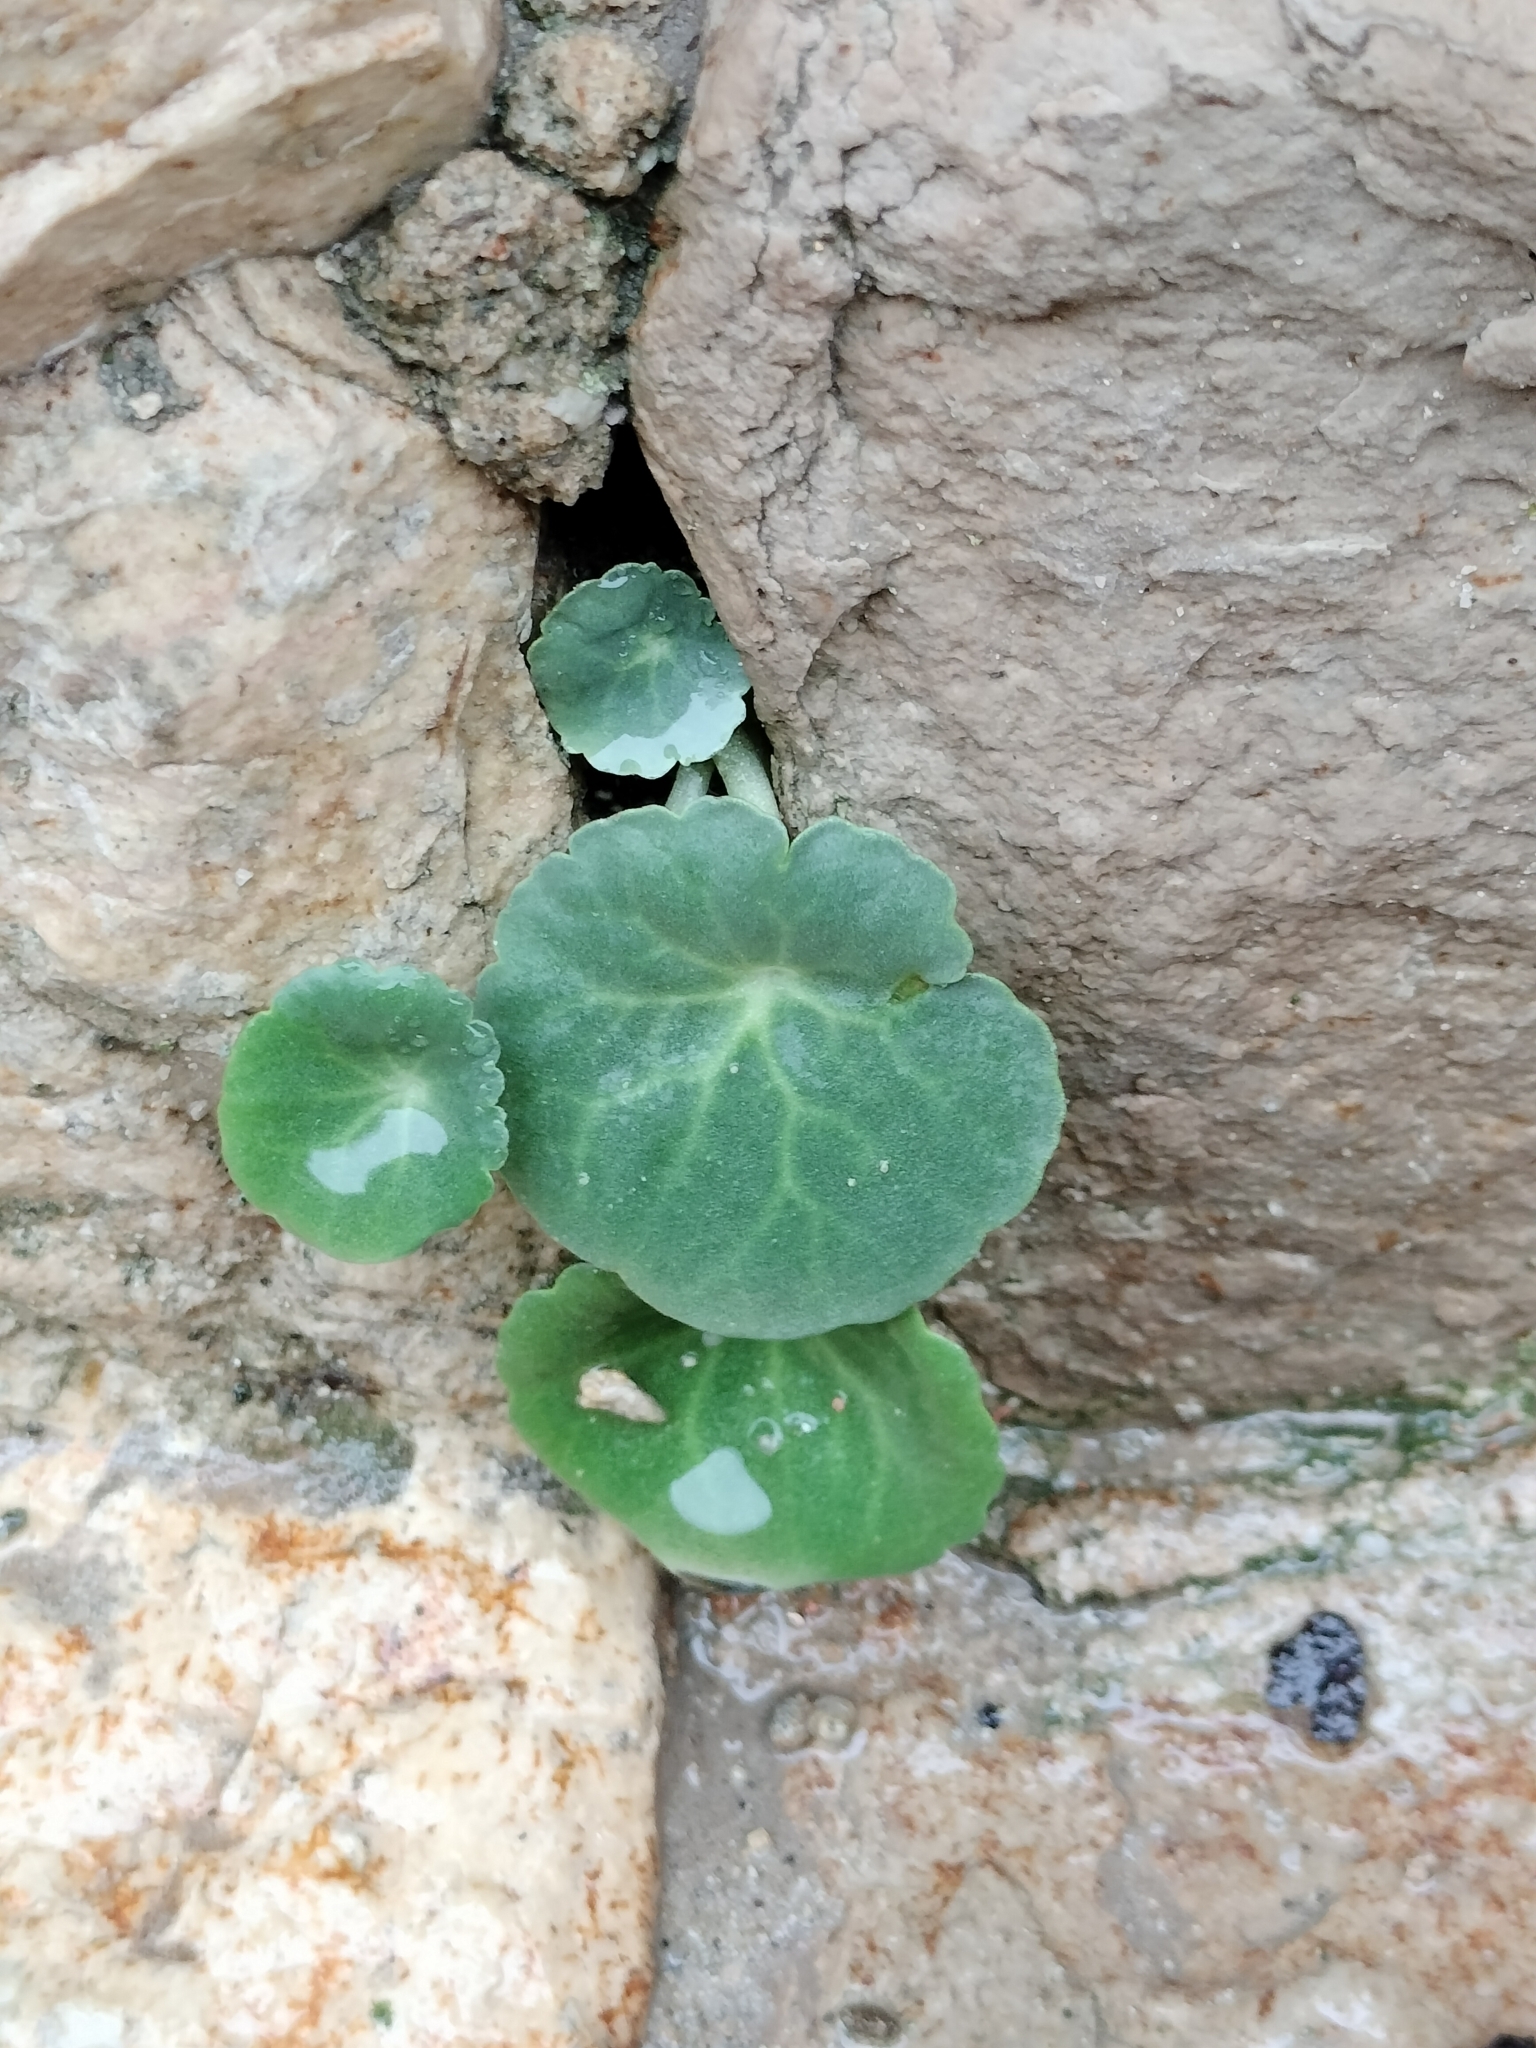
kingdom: Plantae
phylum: Tracheophyta
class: Magnoliopsida
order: Saxifragales
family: Crassulaceae
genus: Umbilicus
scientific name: Umbilicus rupestris
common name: Navelwort
